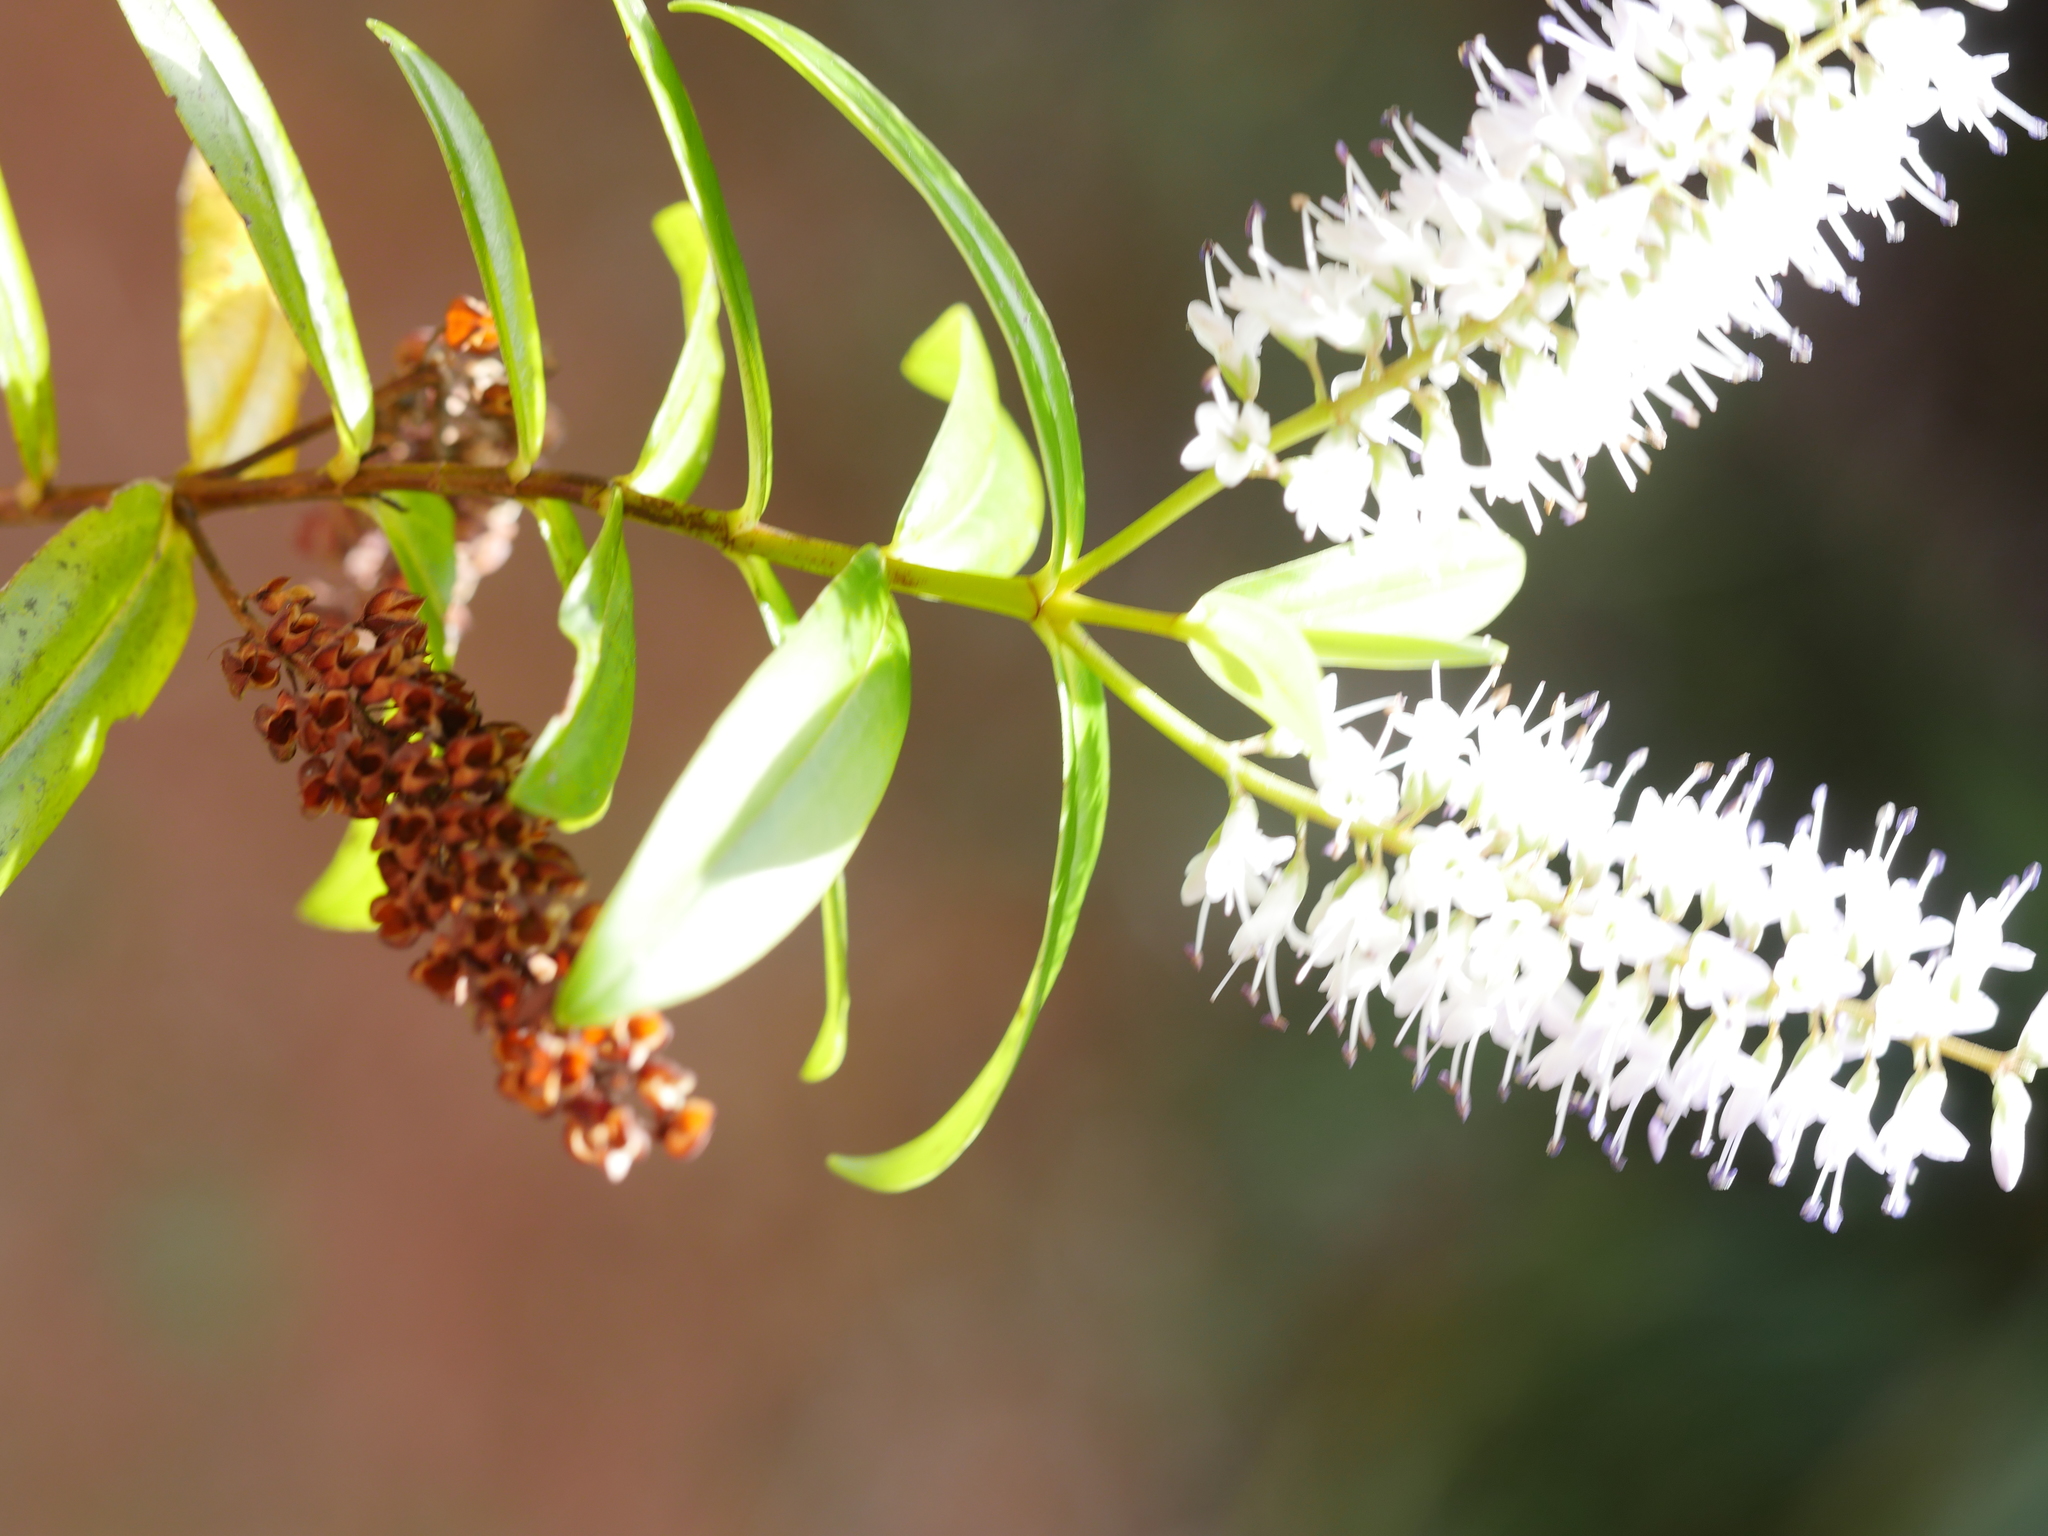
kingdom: Plantae
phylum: Tracheophyta
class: Magnoliopsida
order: Lamiales
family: Plantaginaceae
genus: Veronica
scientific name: Veronica macrocarpa
